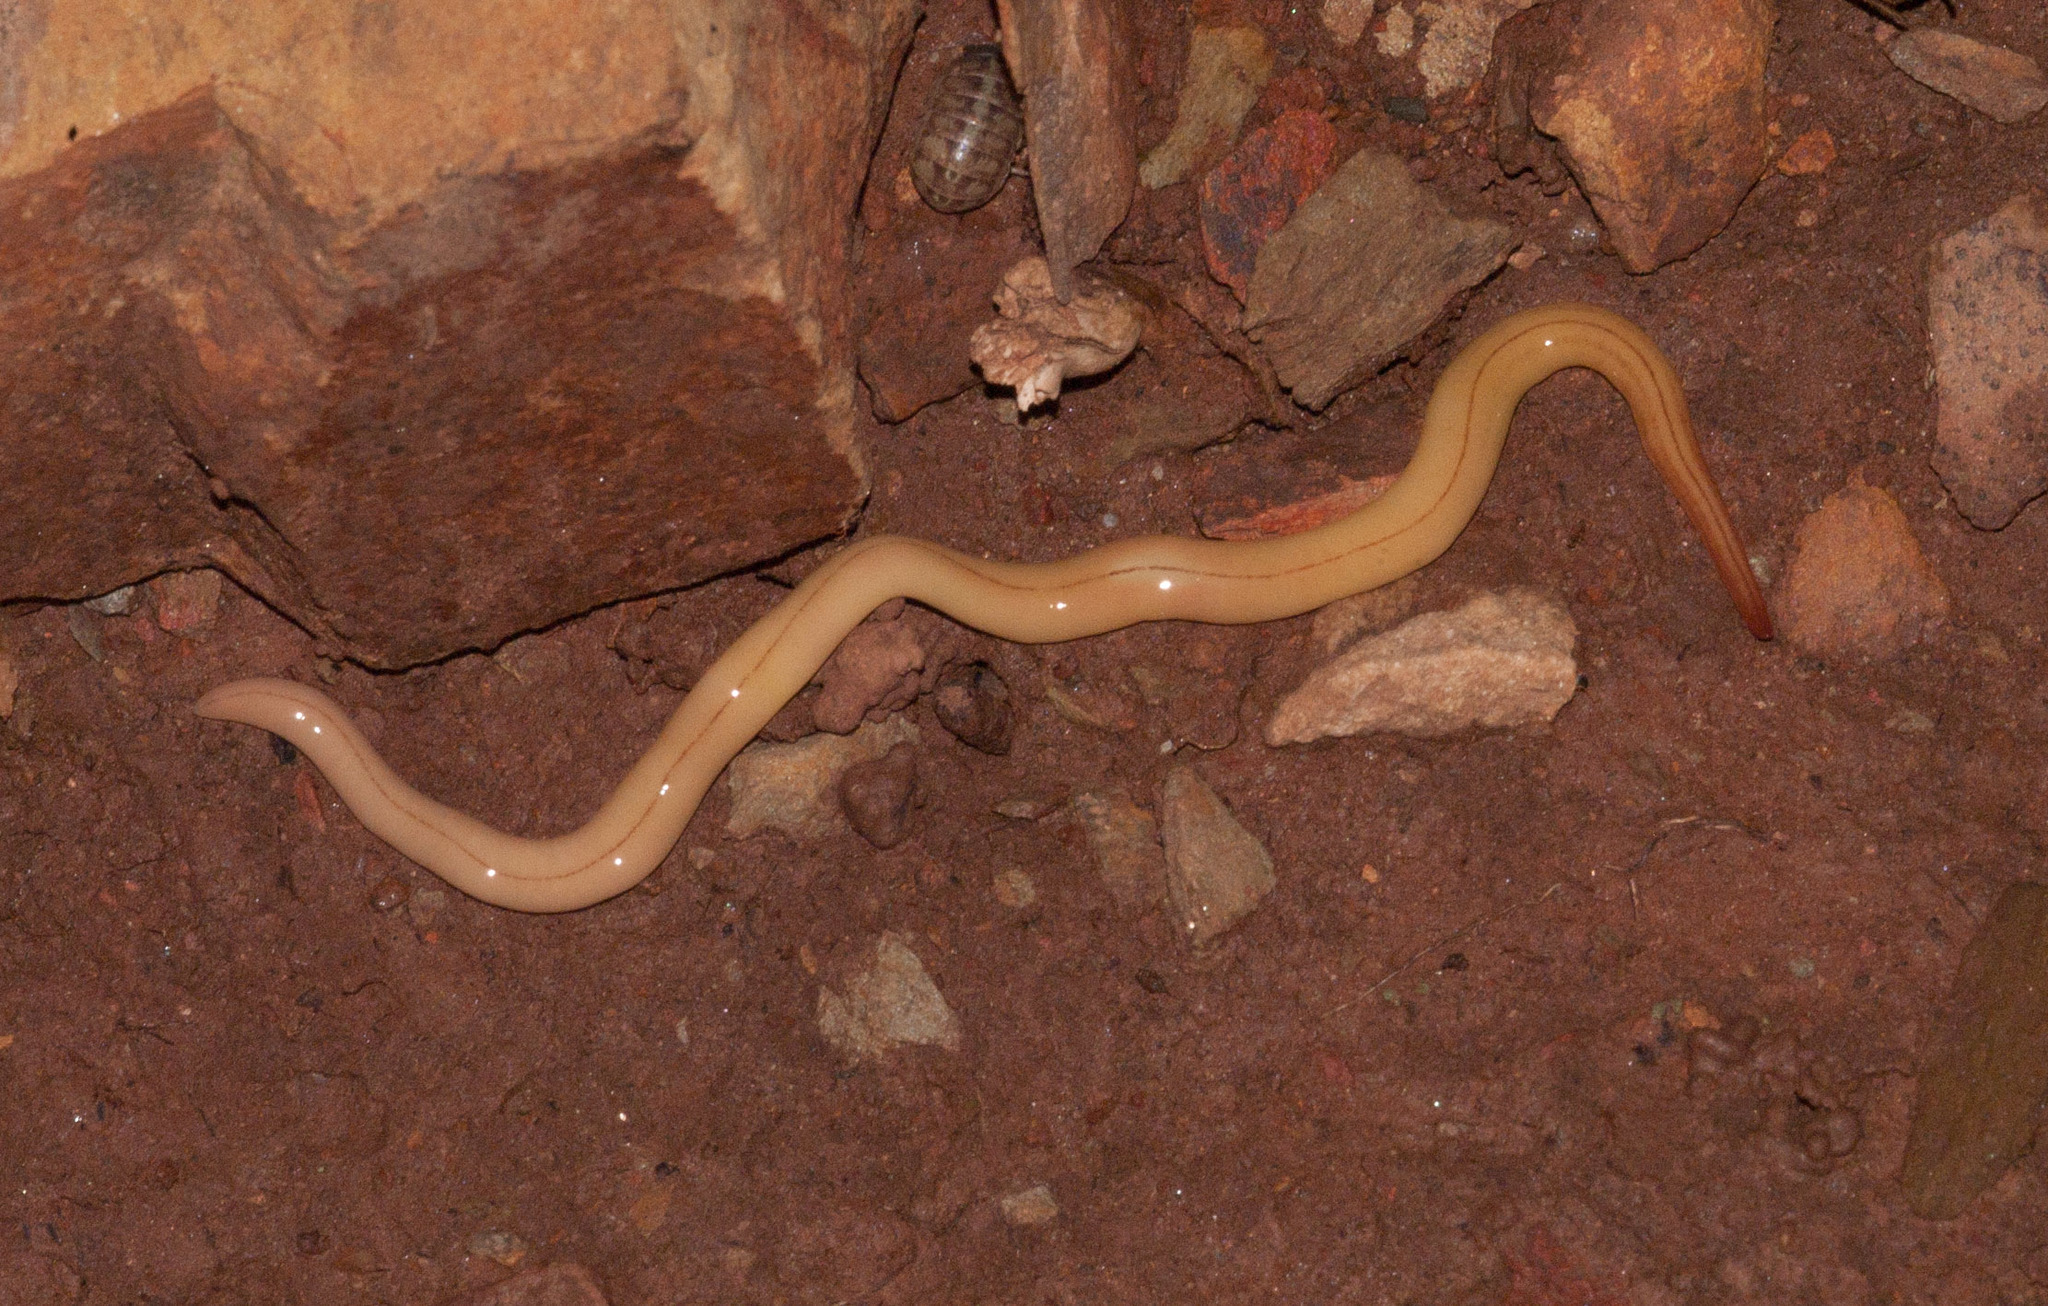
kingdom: Animalia
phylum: Platyhelminthes
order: Tricladida
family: Geoplanidae
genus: Artioposthia
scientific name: Artioposthia adelaidensis
